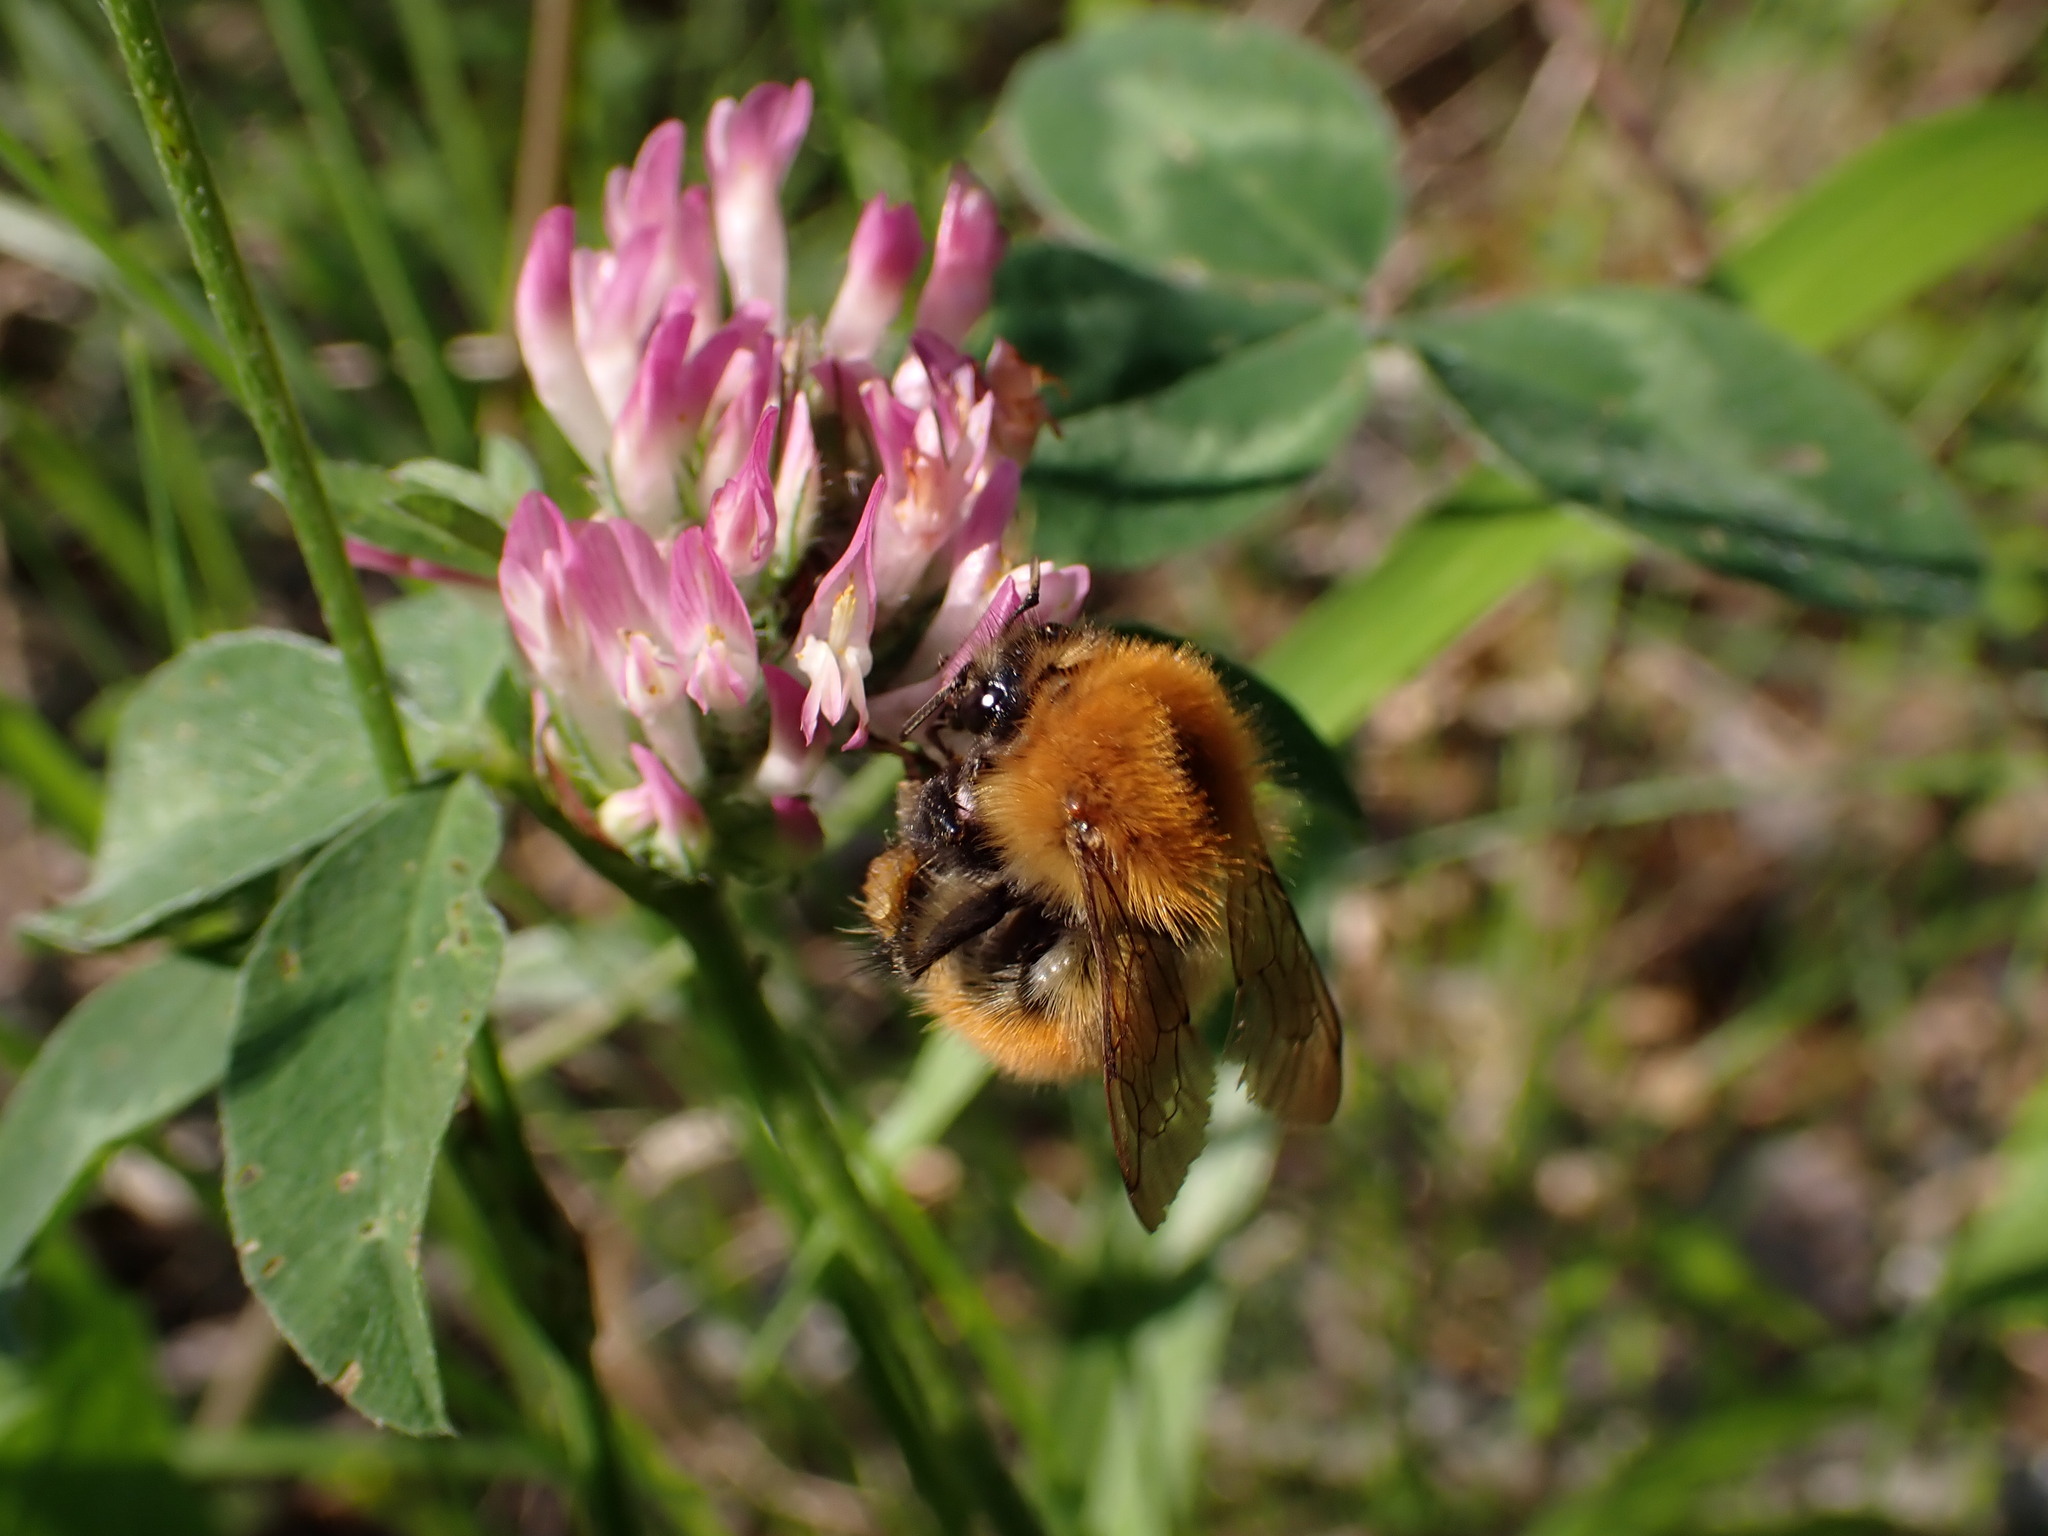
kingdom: Animalia
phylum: Arthropoda
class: Insecta
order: Hymenoptera
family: Apidae
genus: Bombus
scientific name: Bombus pascuorum
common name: Common carder bee
